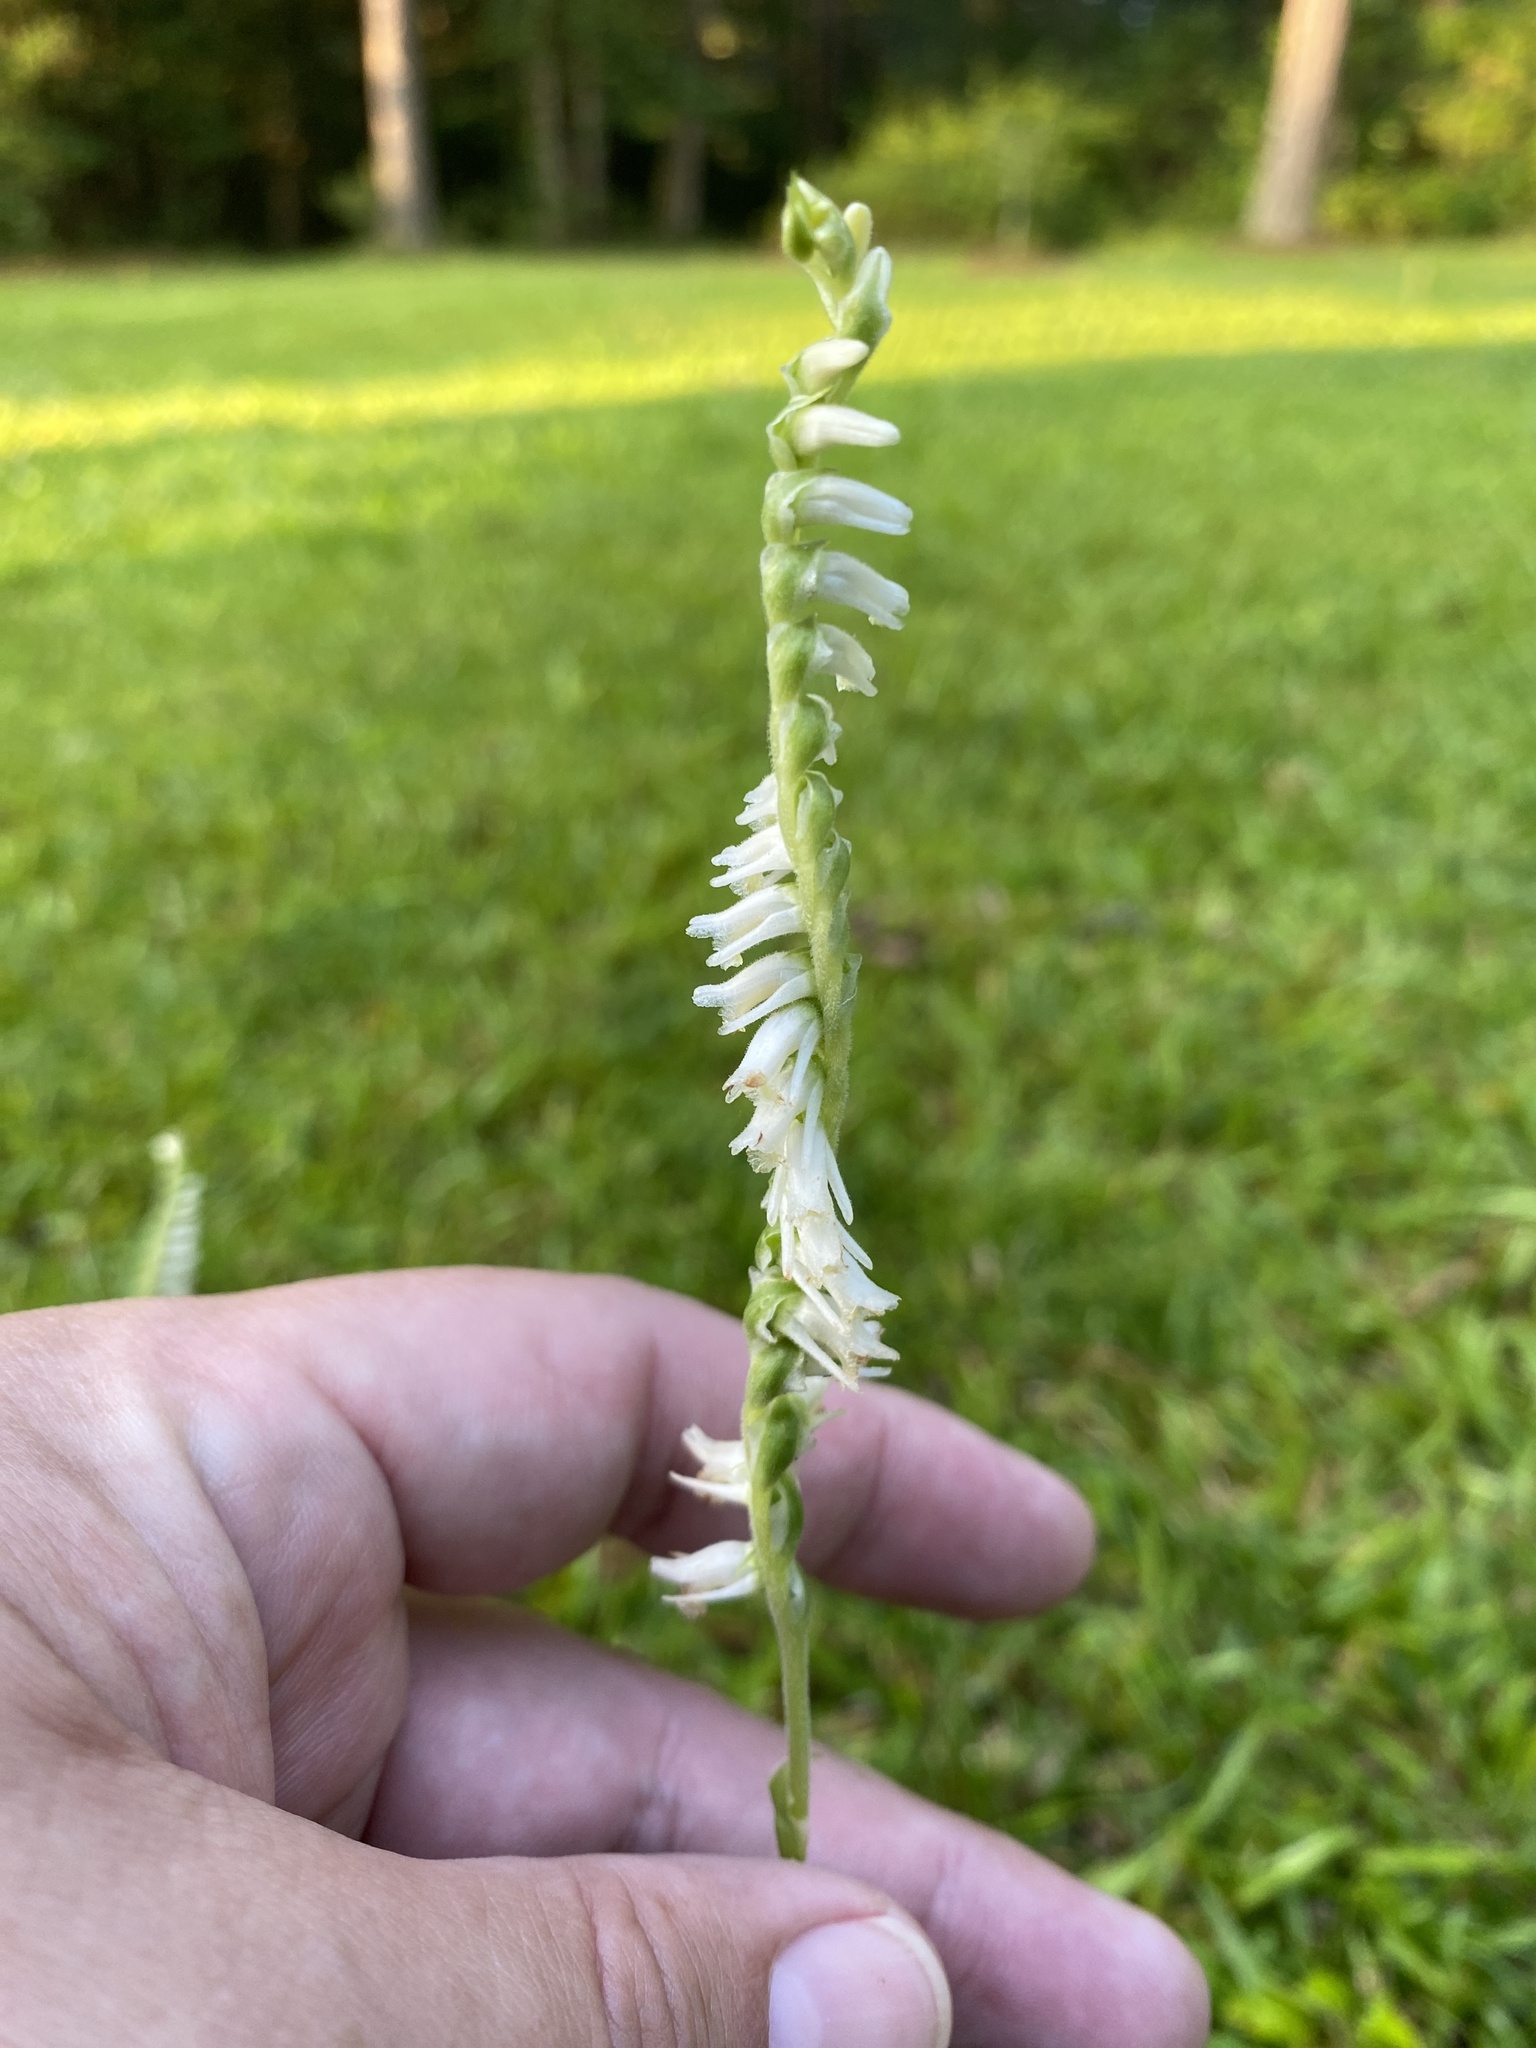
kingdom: Plantae
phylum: Tracheophyta
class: Liliopsida
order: Asparagales
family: Orchidaceae
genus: Spiranthes
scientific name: Spiranthes vernalis
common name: Spring ladies'-tresses
